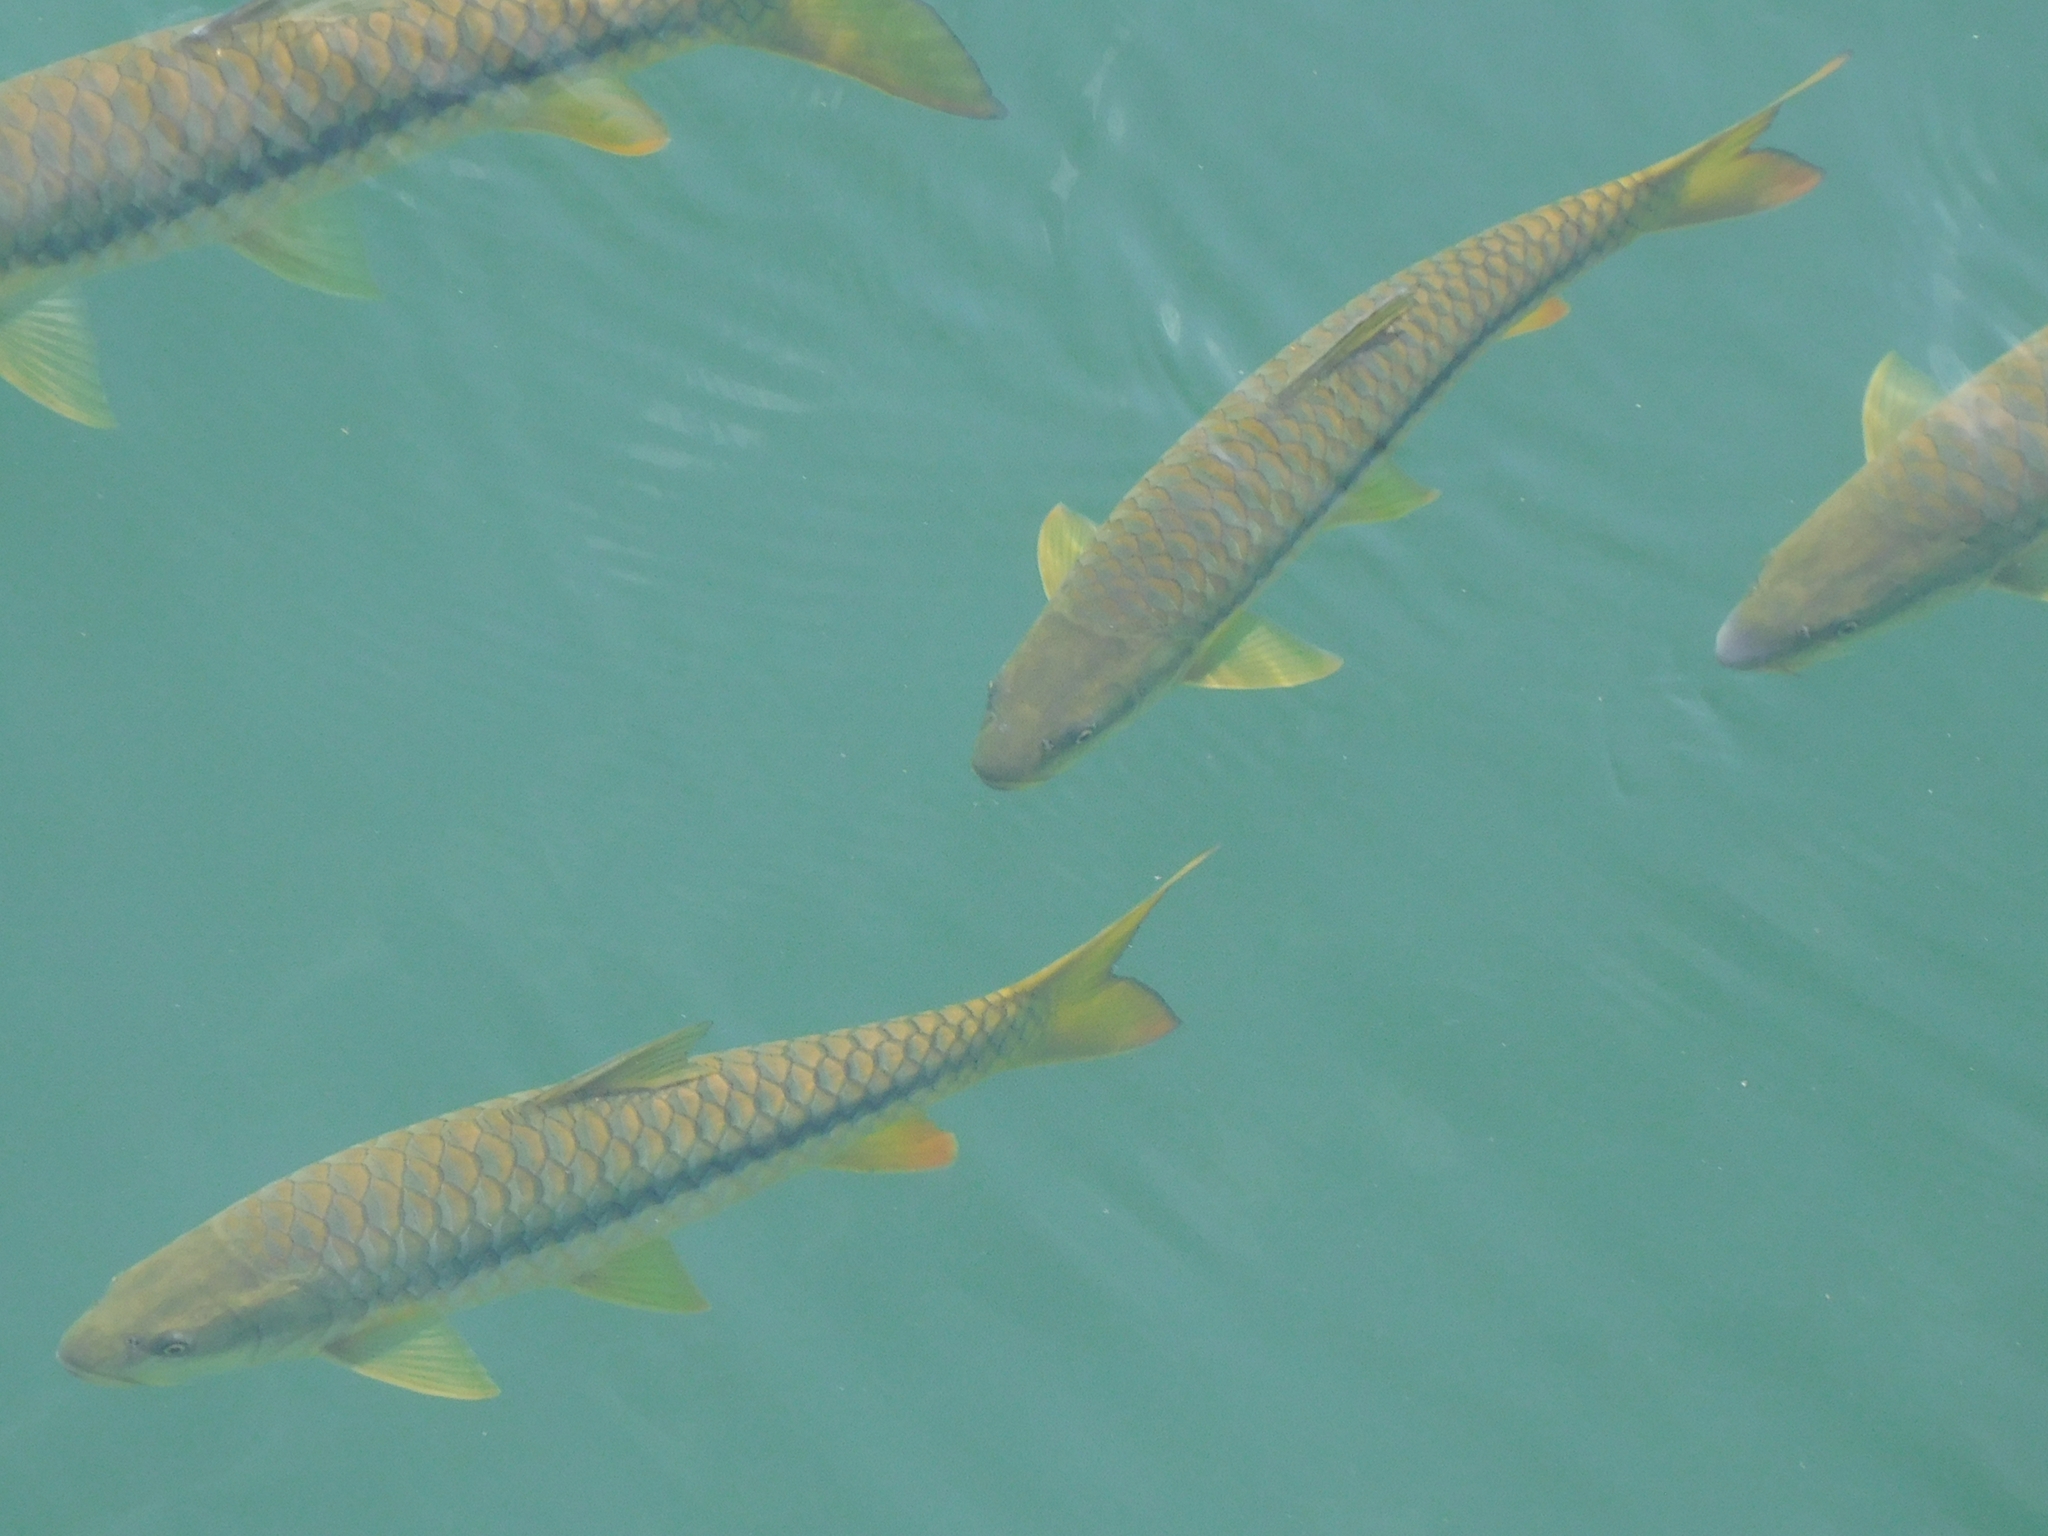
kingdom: Animalia
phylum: Chordata
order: Cypriniformes
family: Cyprinidae
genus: Tor
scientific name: Tor putitora
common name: Putitor mahseer
